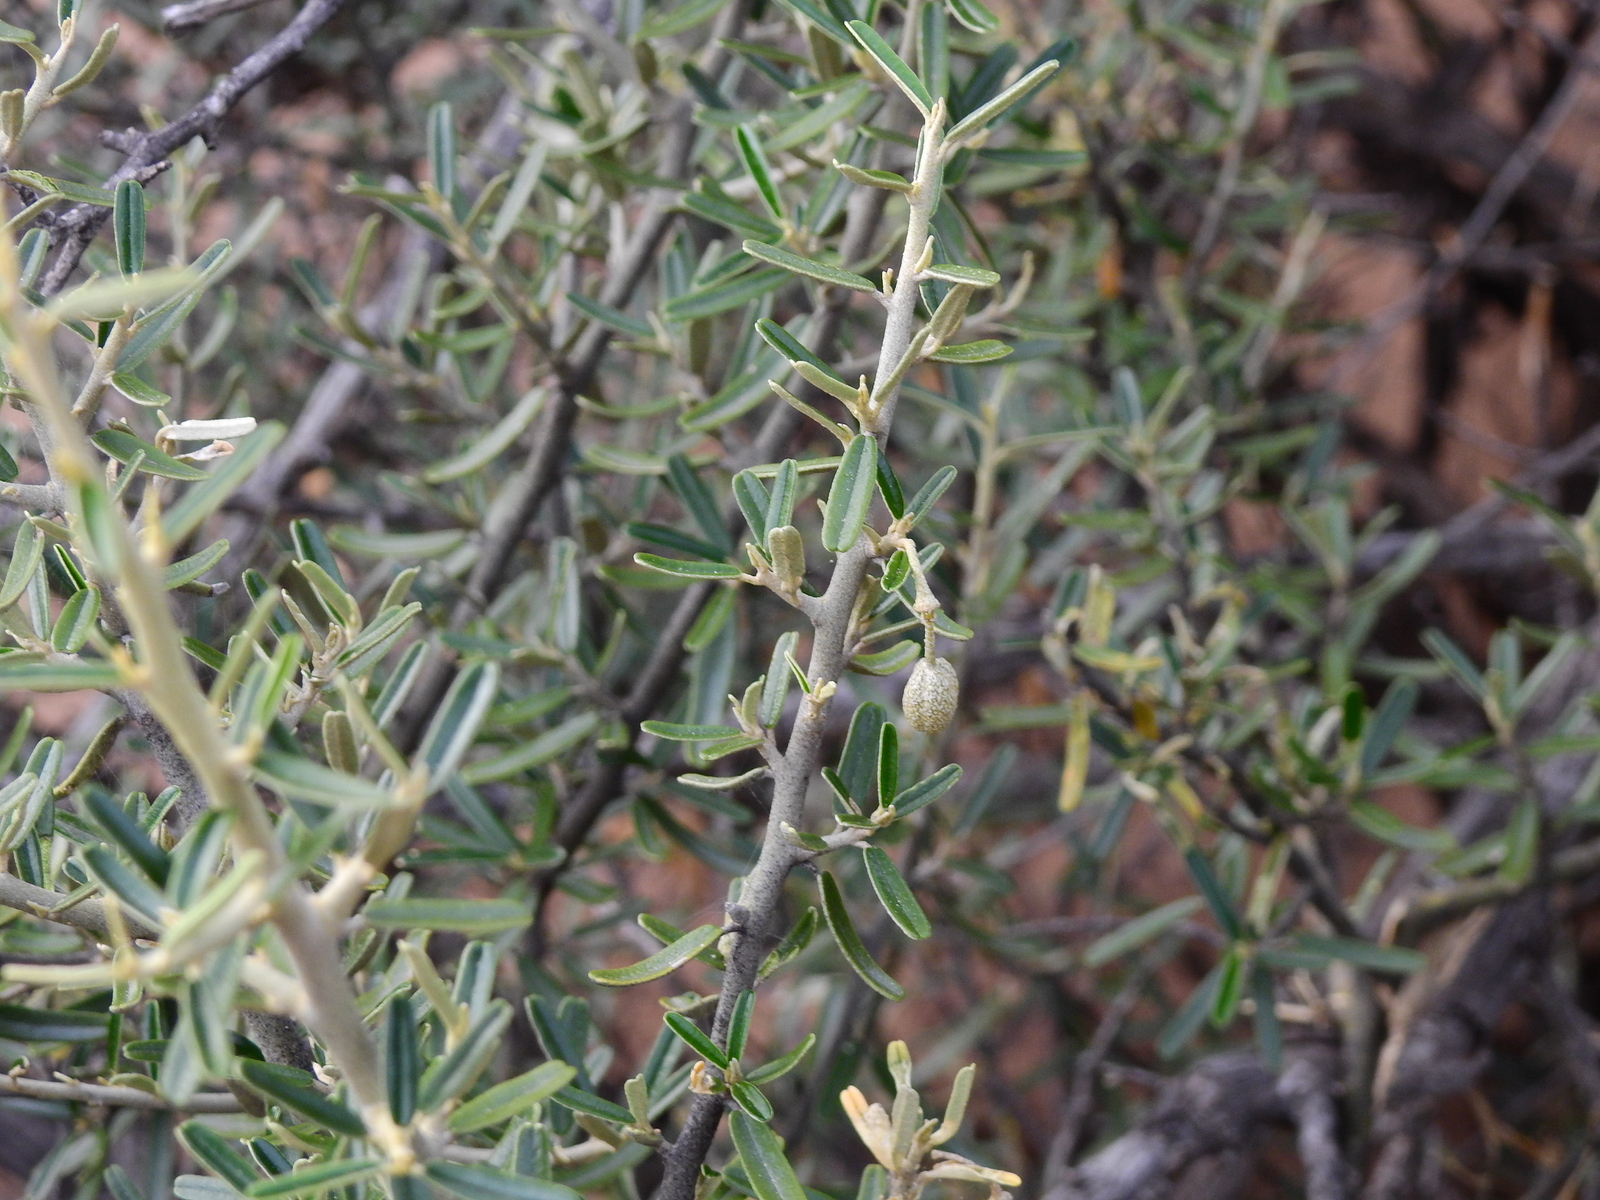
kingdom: Plantae
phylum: Tracheophyta
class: Magnoliopsida
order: Brassicales
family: Capparaceae
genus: Atamisquea
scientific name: Atamisquea emarginata
